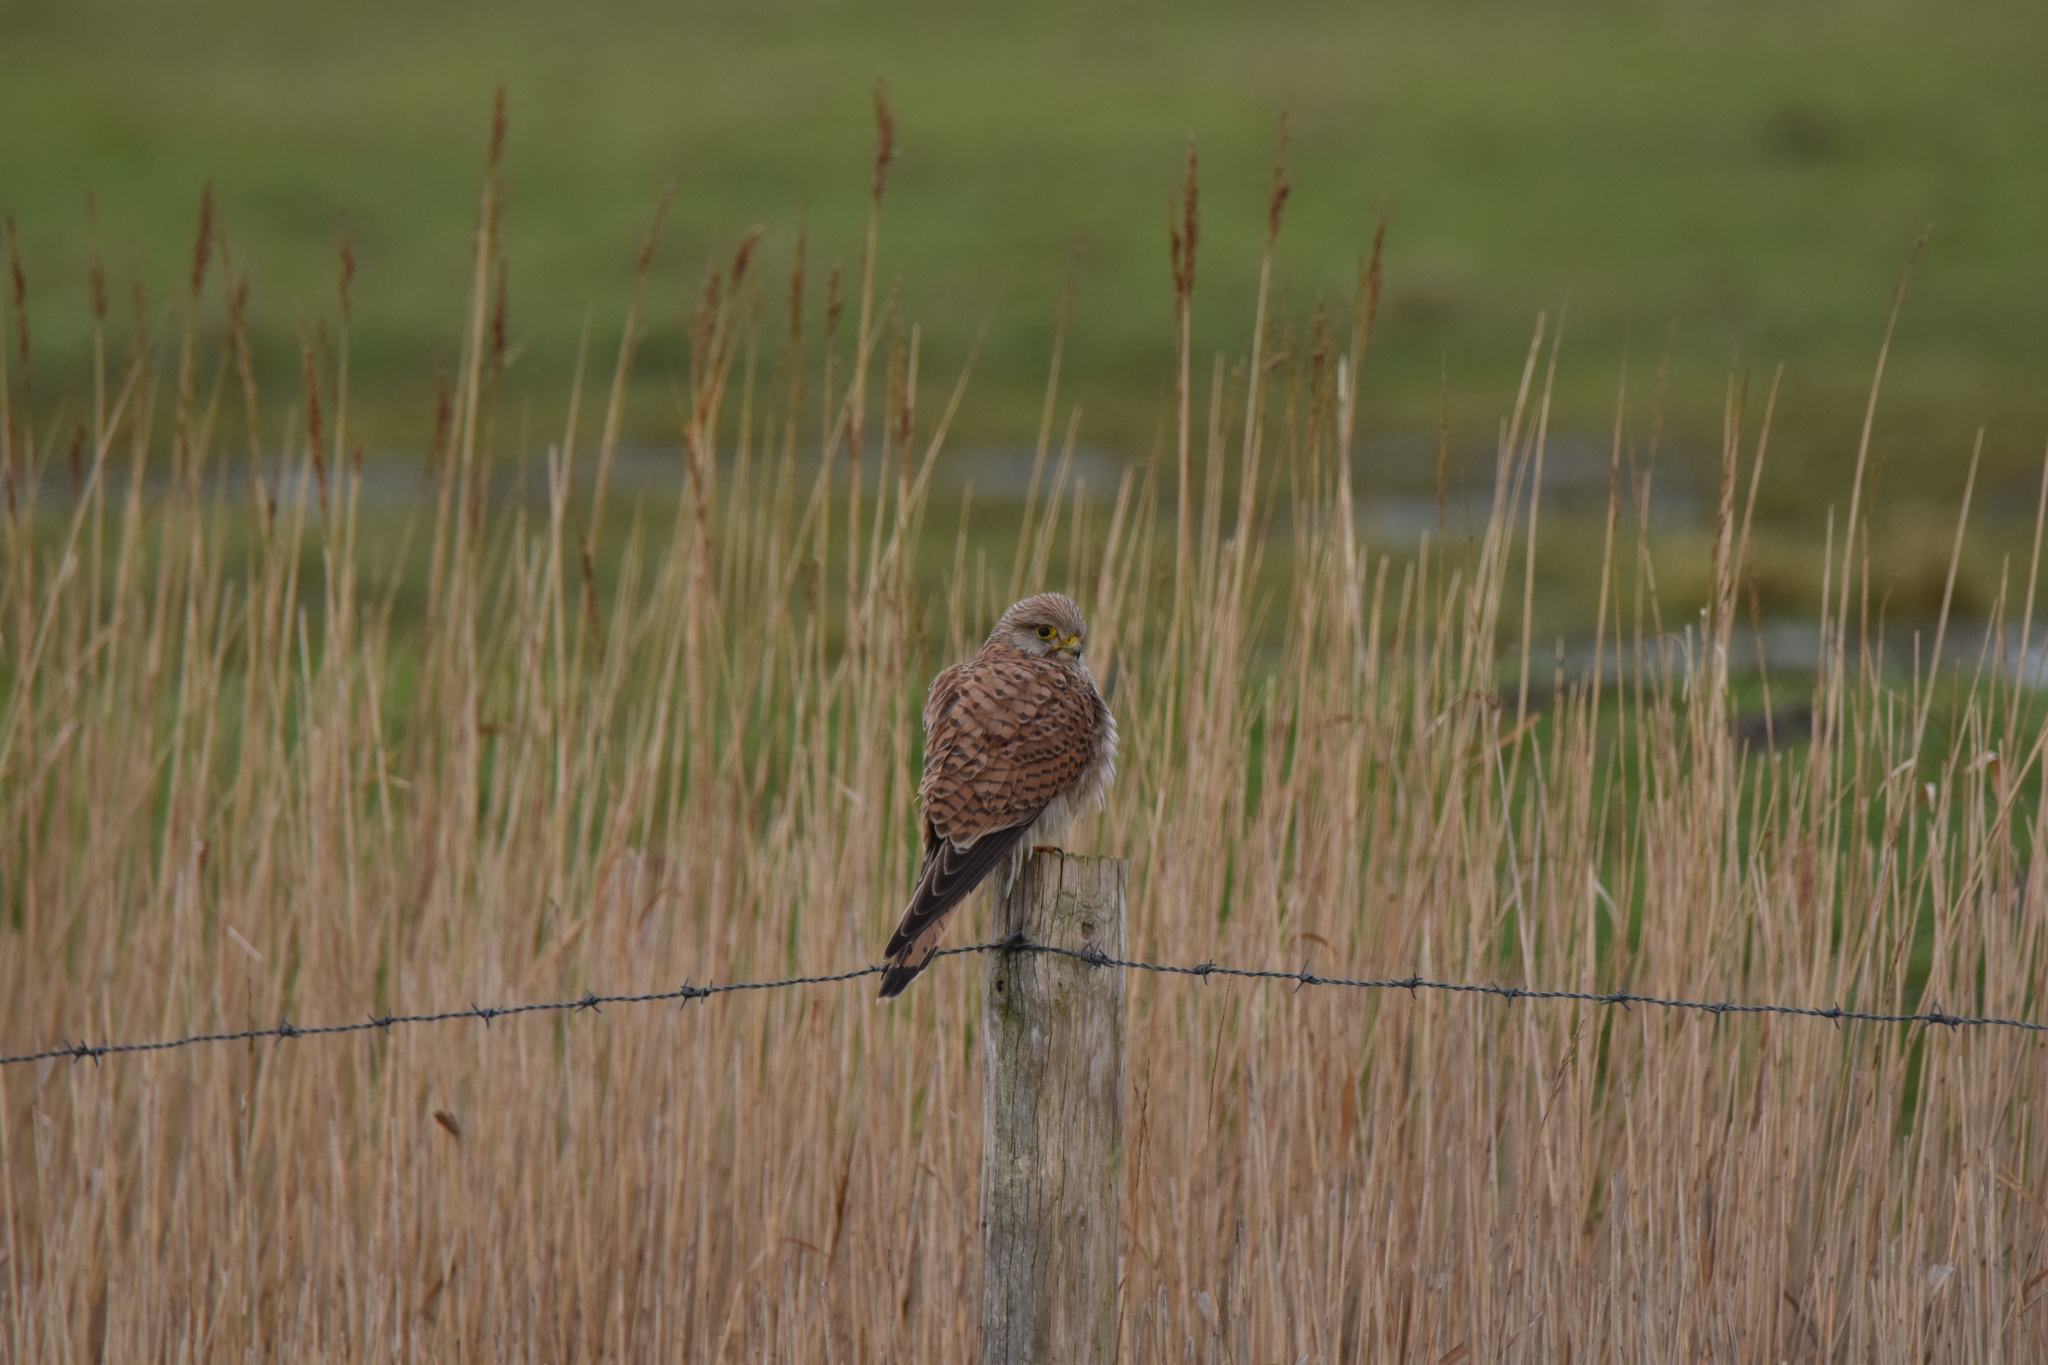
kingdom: Animalia
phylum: Chordata
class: Aves
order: Falconiformes
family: Falconidae
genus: Falco
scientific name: Falco tinnunculus
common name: Common kestrel
